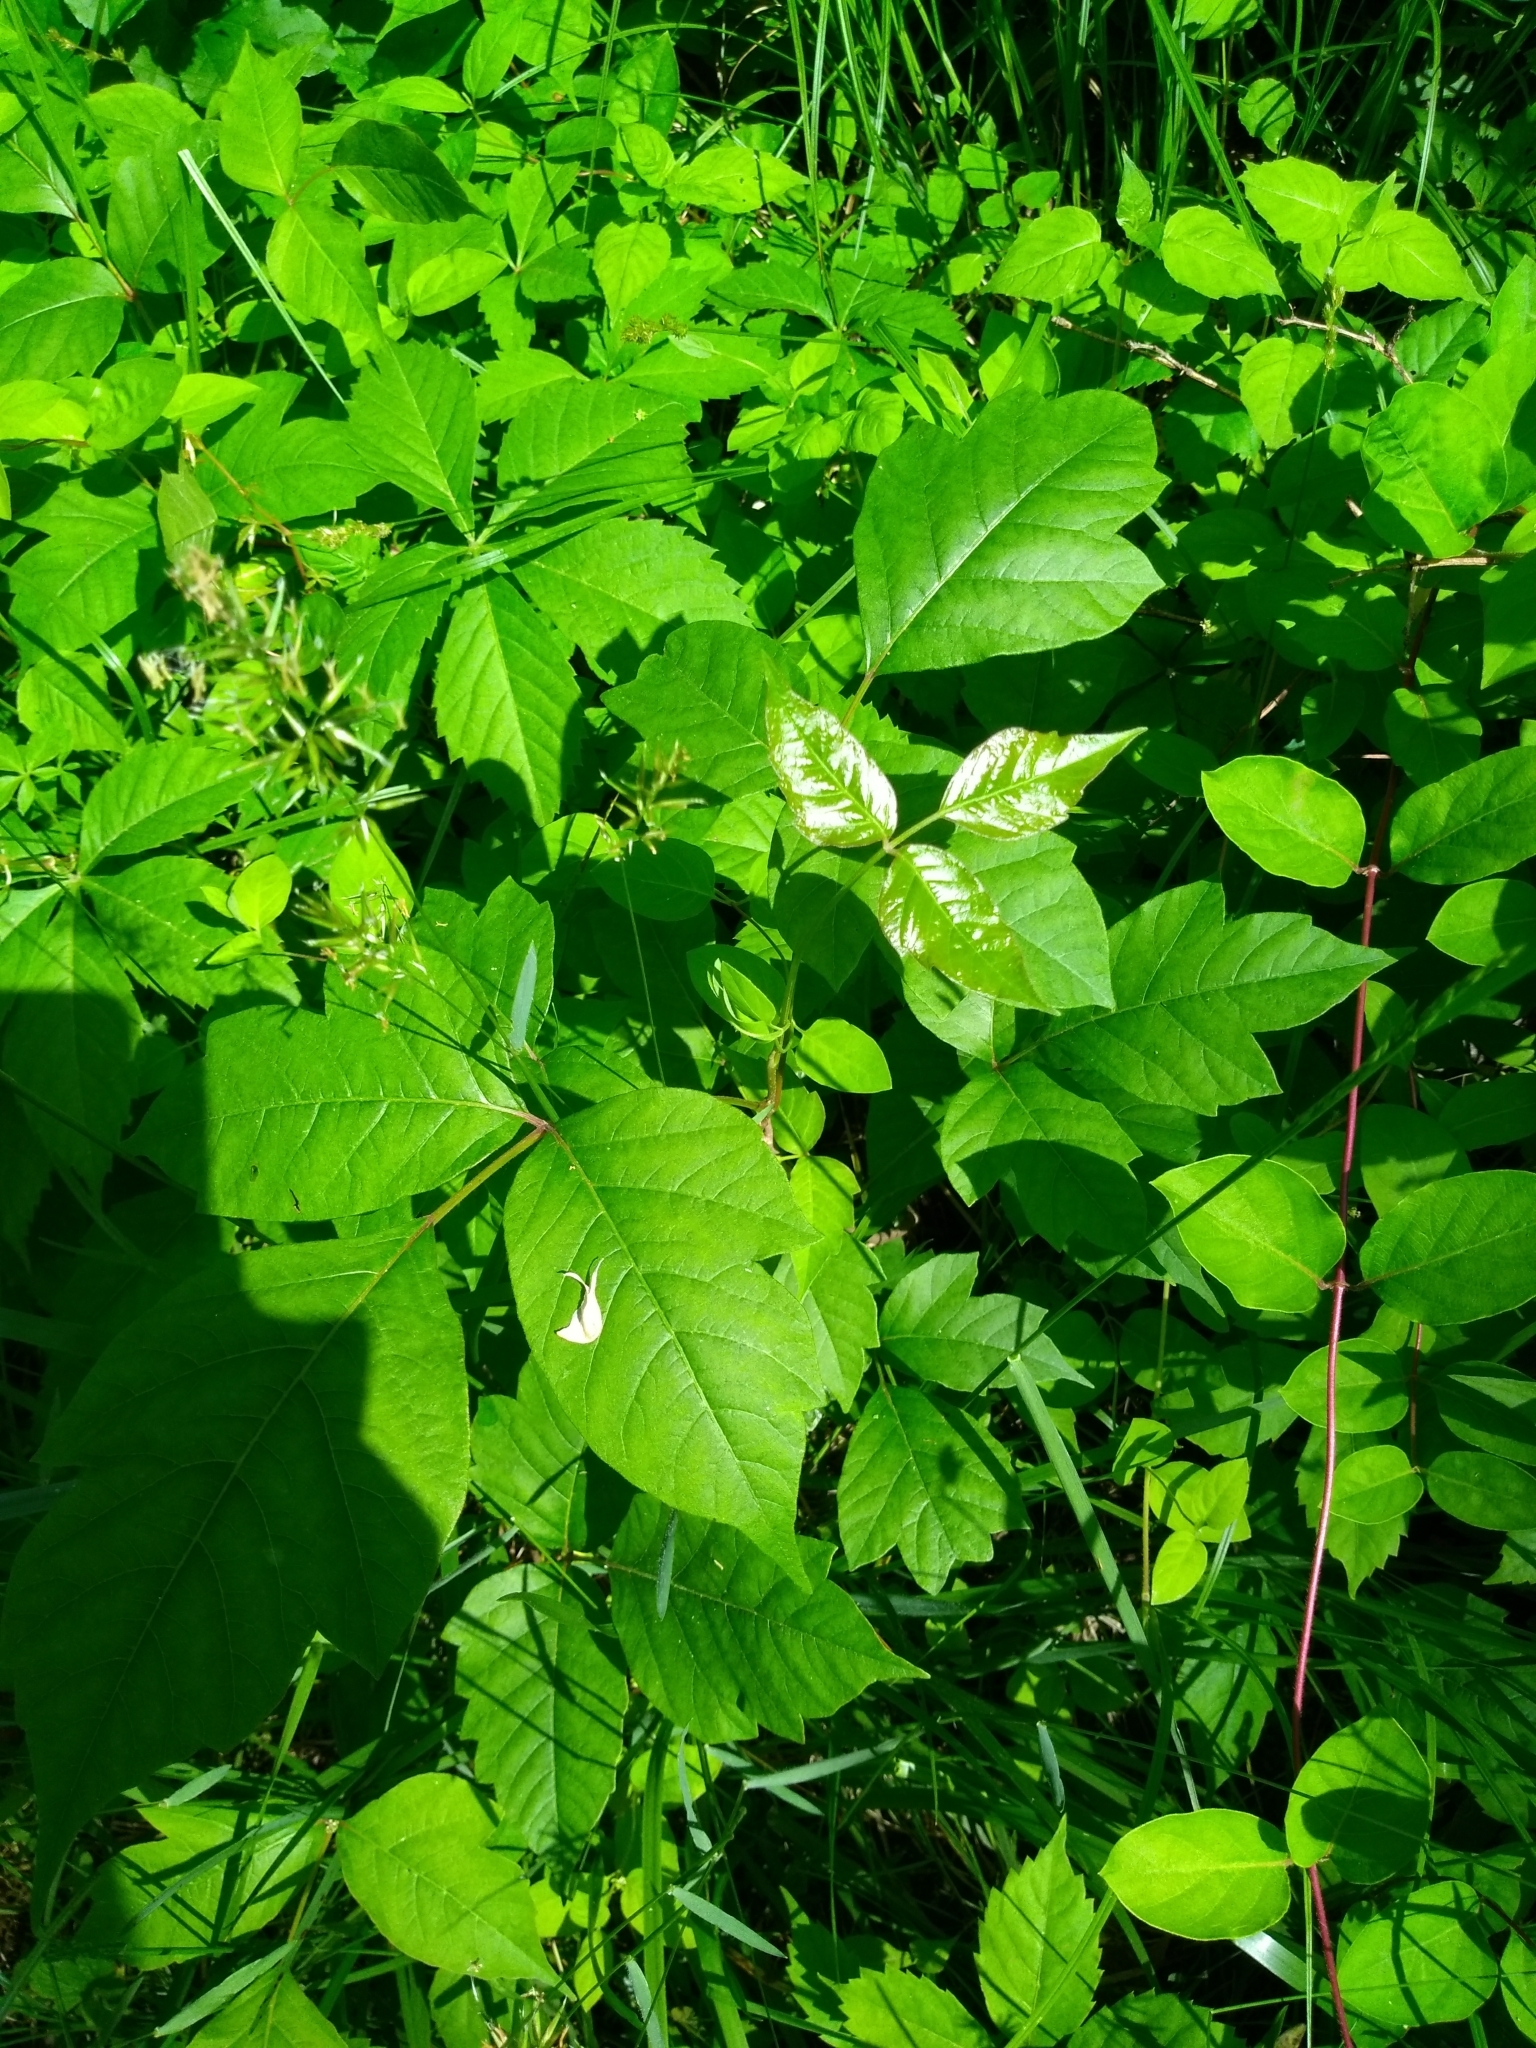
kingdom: Plantae
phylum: Tracheophyta
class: Magnoliopsida
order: Sapindales
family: Anacardiaceae
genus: Toxicodendron
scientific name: Toxicodendron radicans
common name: Poison ivy
